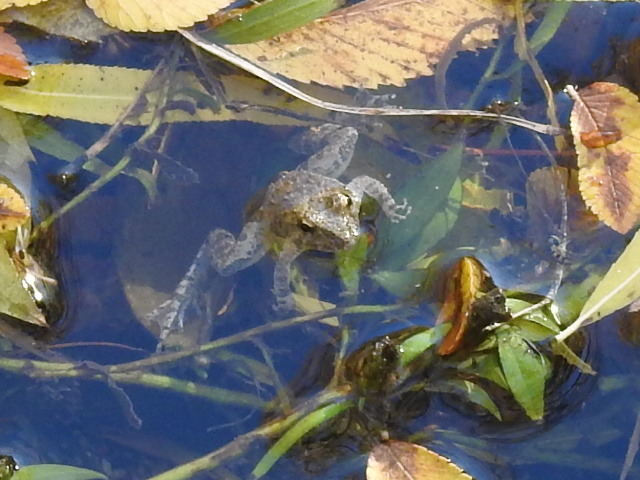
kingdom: Animalia
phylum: Chordata
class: Amphibia
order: Anura
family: Hylidae
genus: Acris
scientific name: Acris blanchardi
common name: Blanchard's cricket frog
